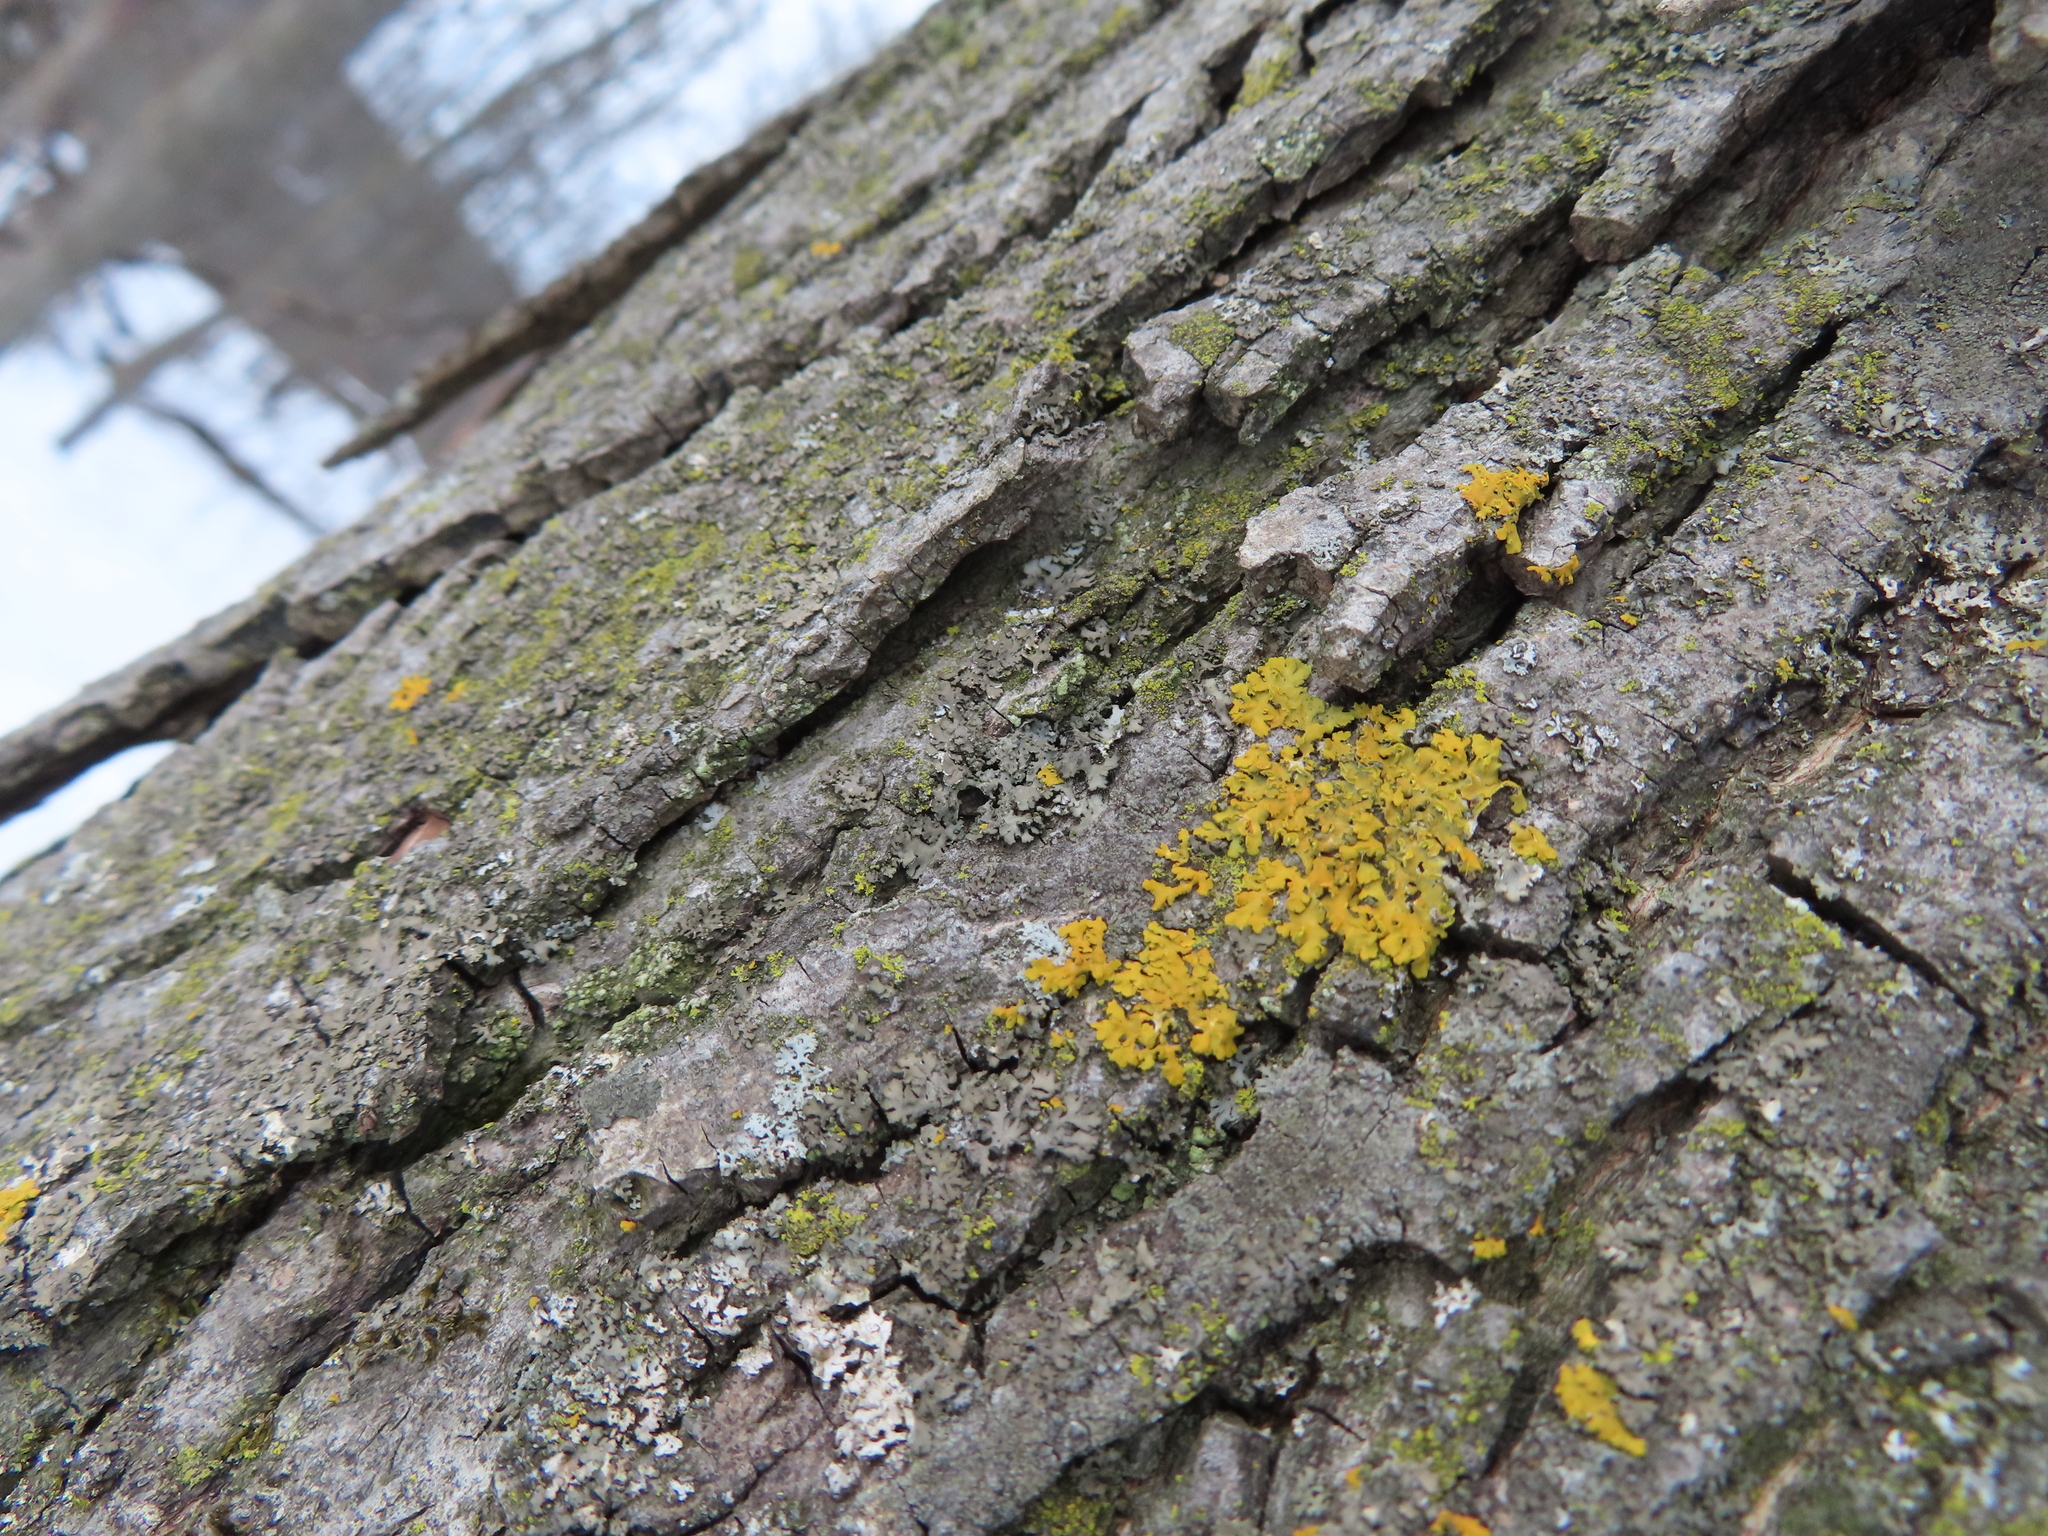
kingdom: Fungi
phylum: Ascomycota
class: Lecanoromycetes
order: Teloschistales
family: Teloschistaceae
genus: Oxneria
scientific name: Oxneria fallax
